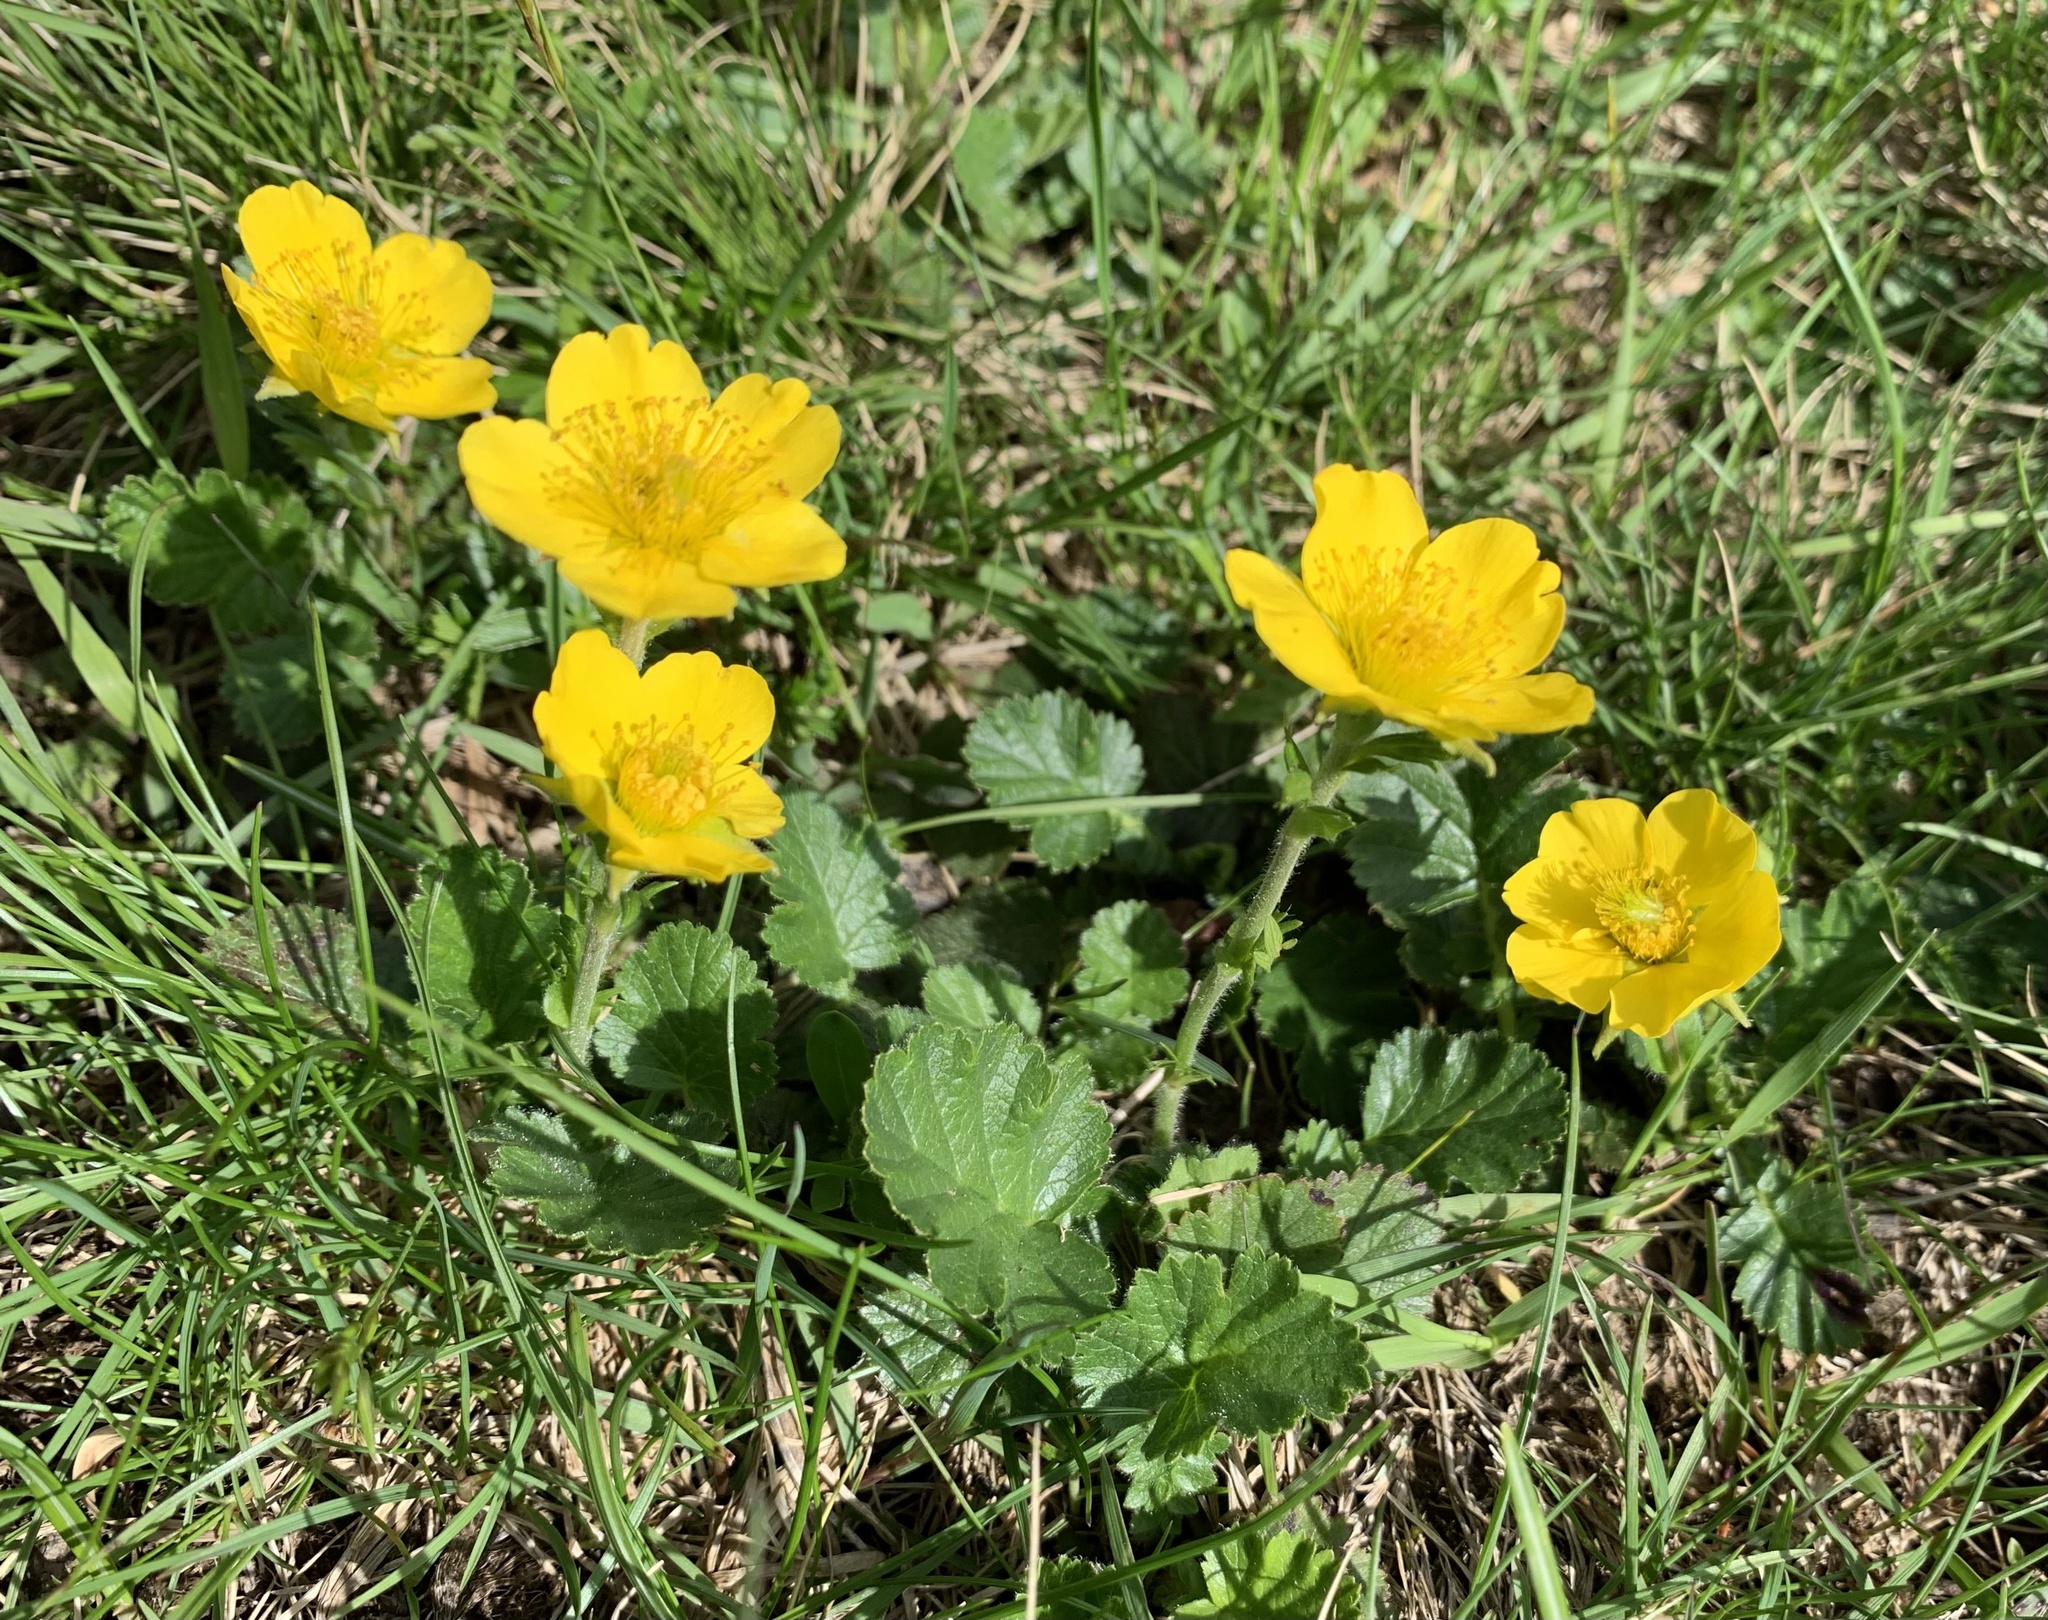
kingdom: Plantae
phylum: Tracheophyta
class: Magnoliopsida
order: Rosales
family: Rosaceae
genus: Geum
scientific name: Geum montanum
